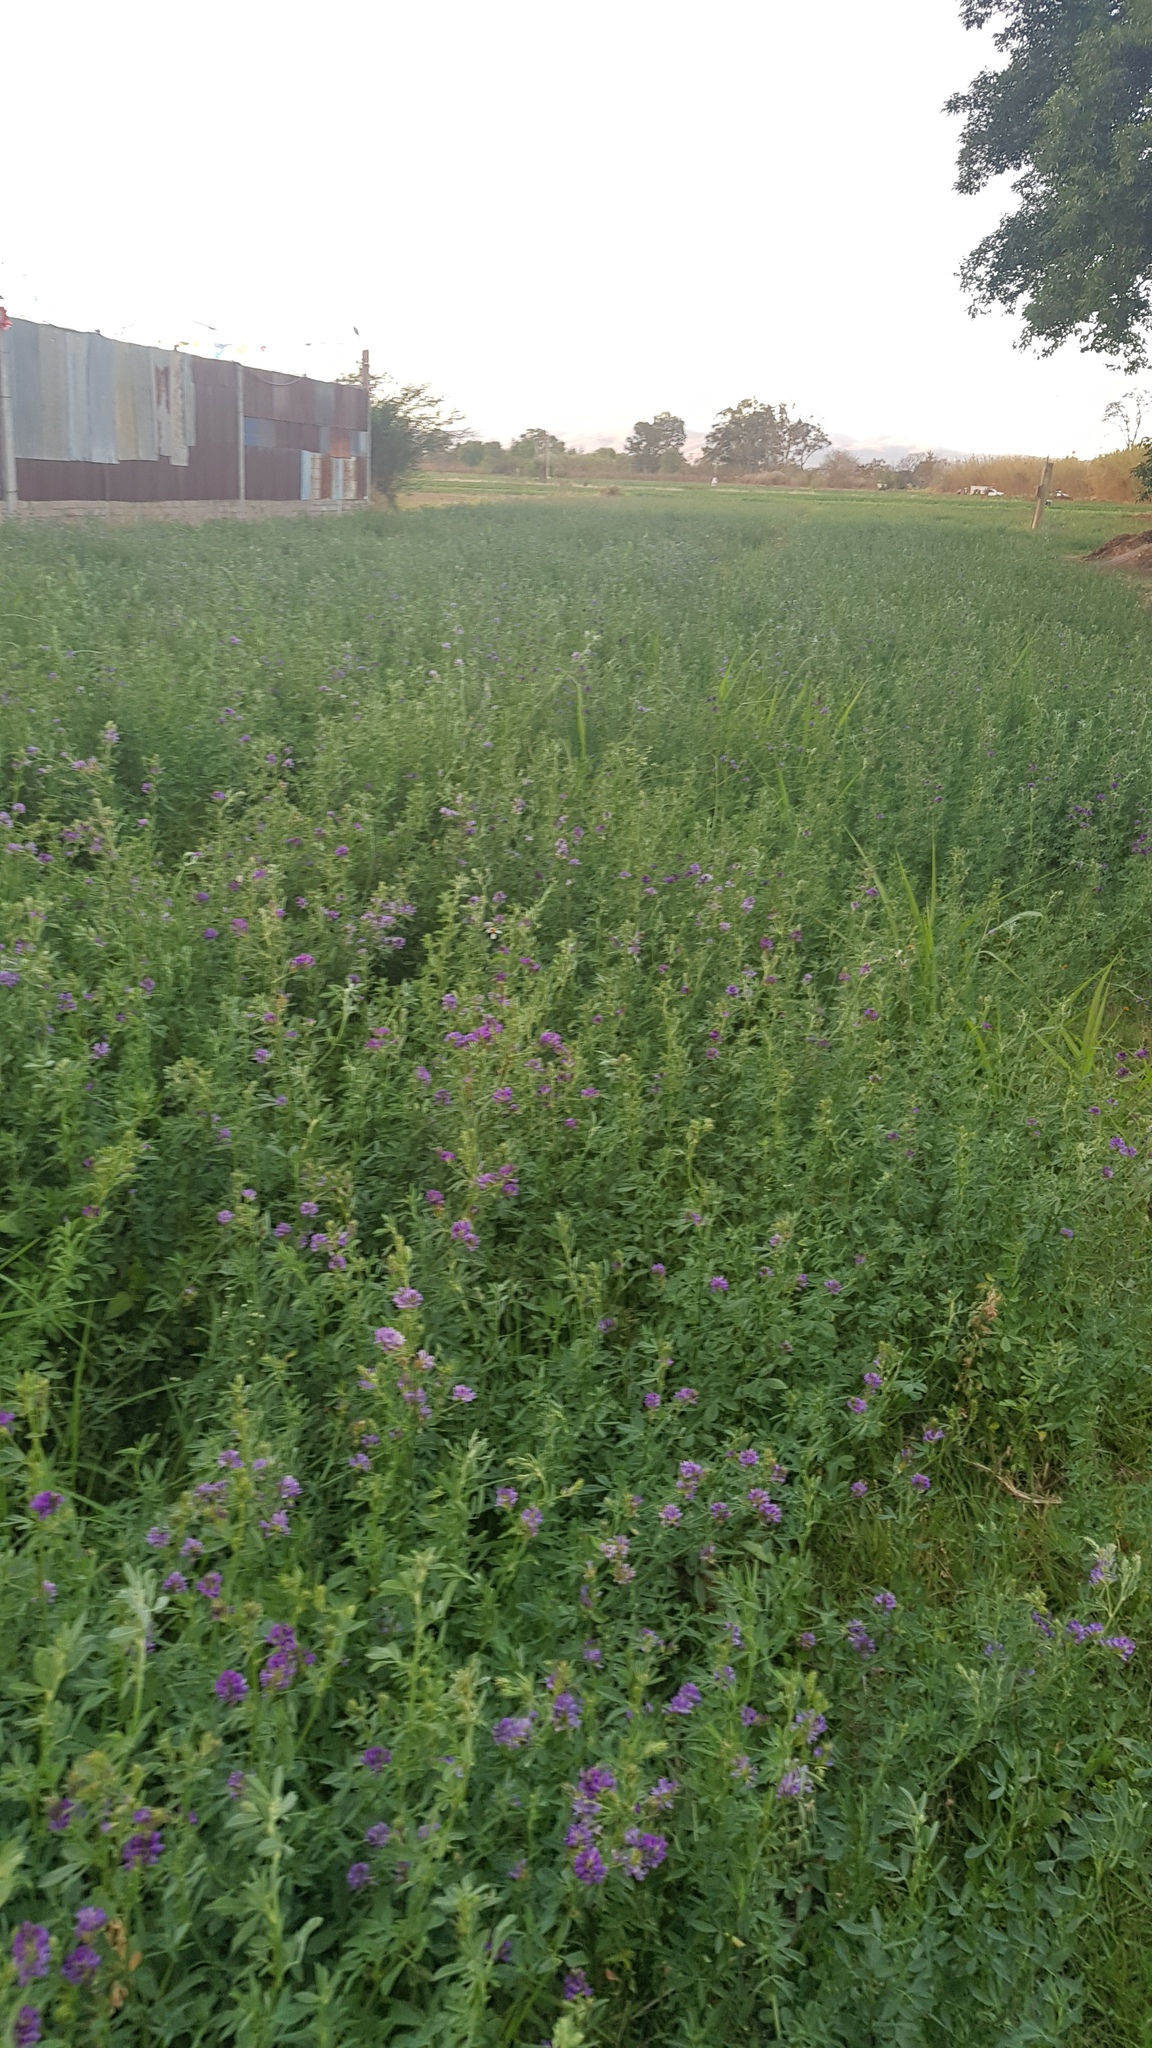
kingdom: Plantae
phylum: Tracheophyta
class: Magnoliopsida
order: Fabales
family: Fabaceae
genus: Medicago
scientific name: Medicago sativa
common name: Alfalfa
